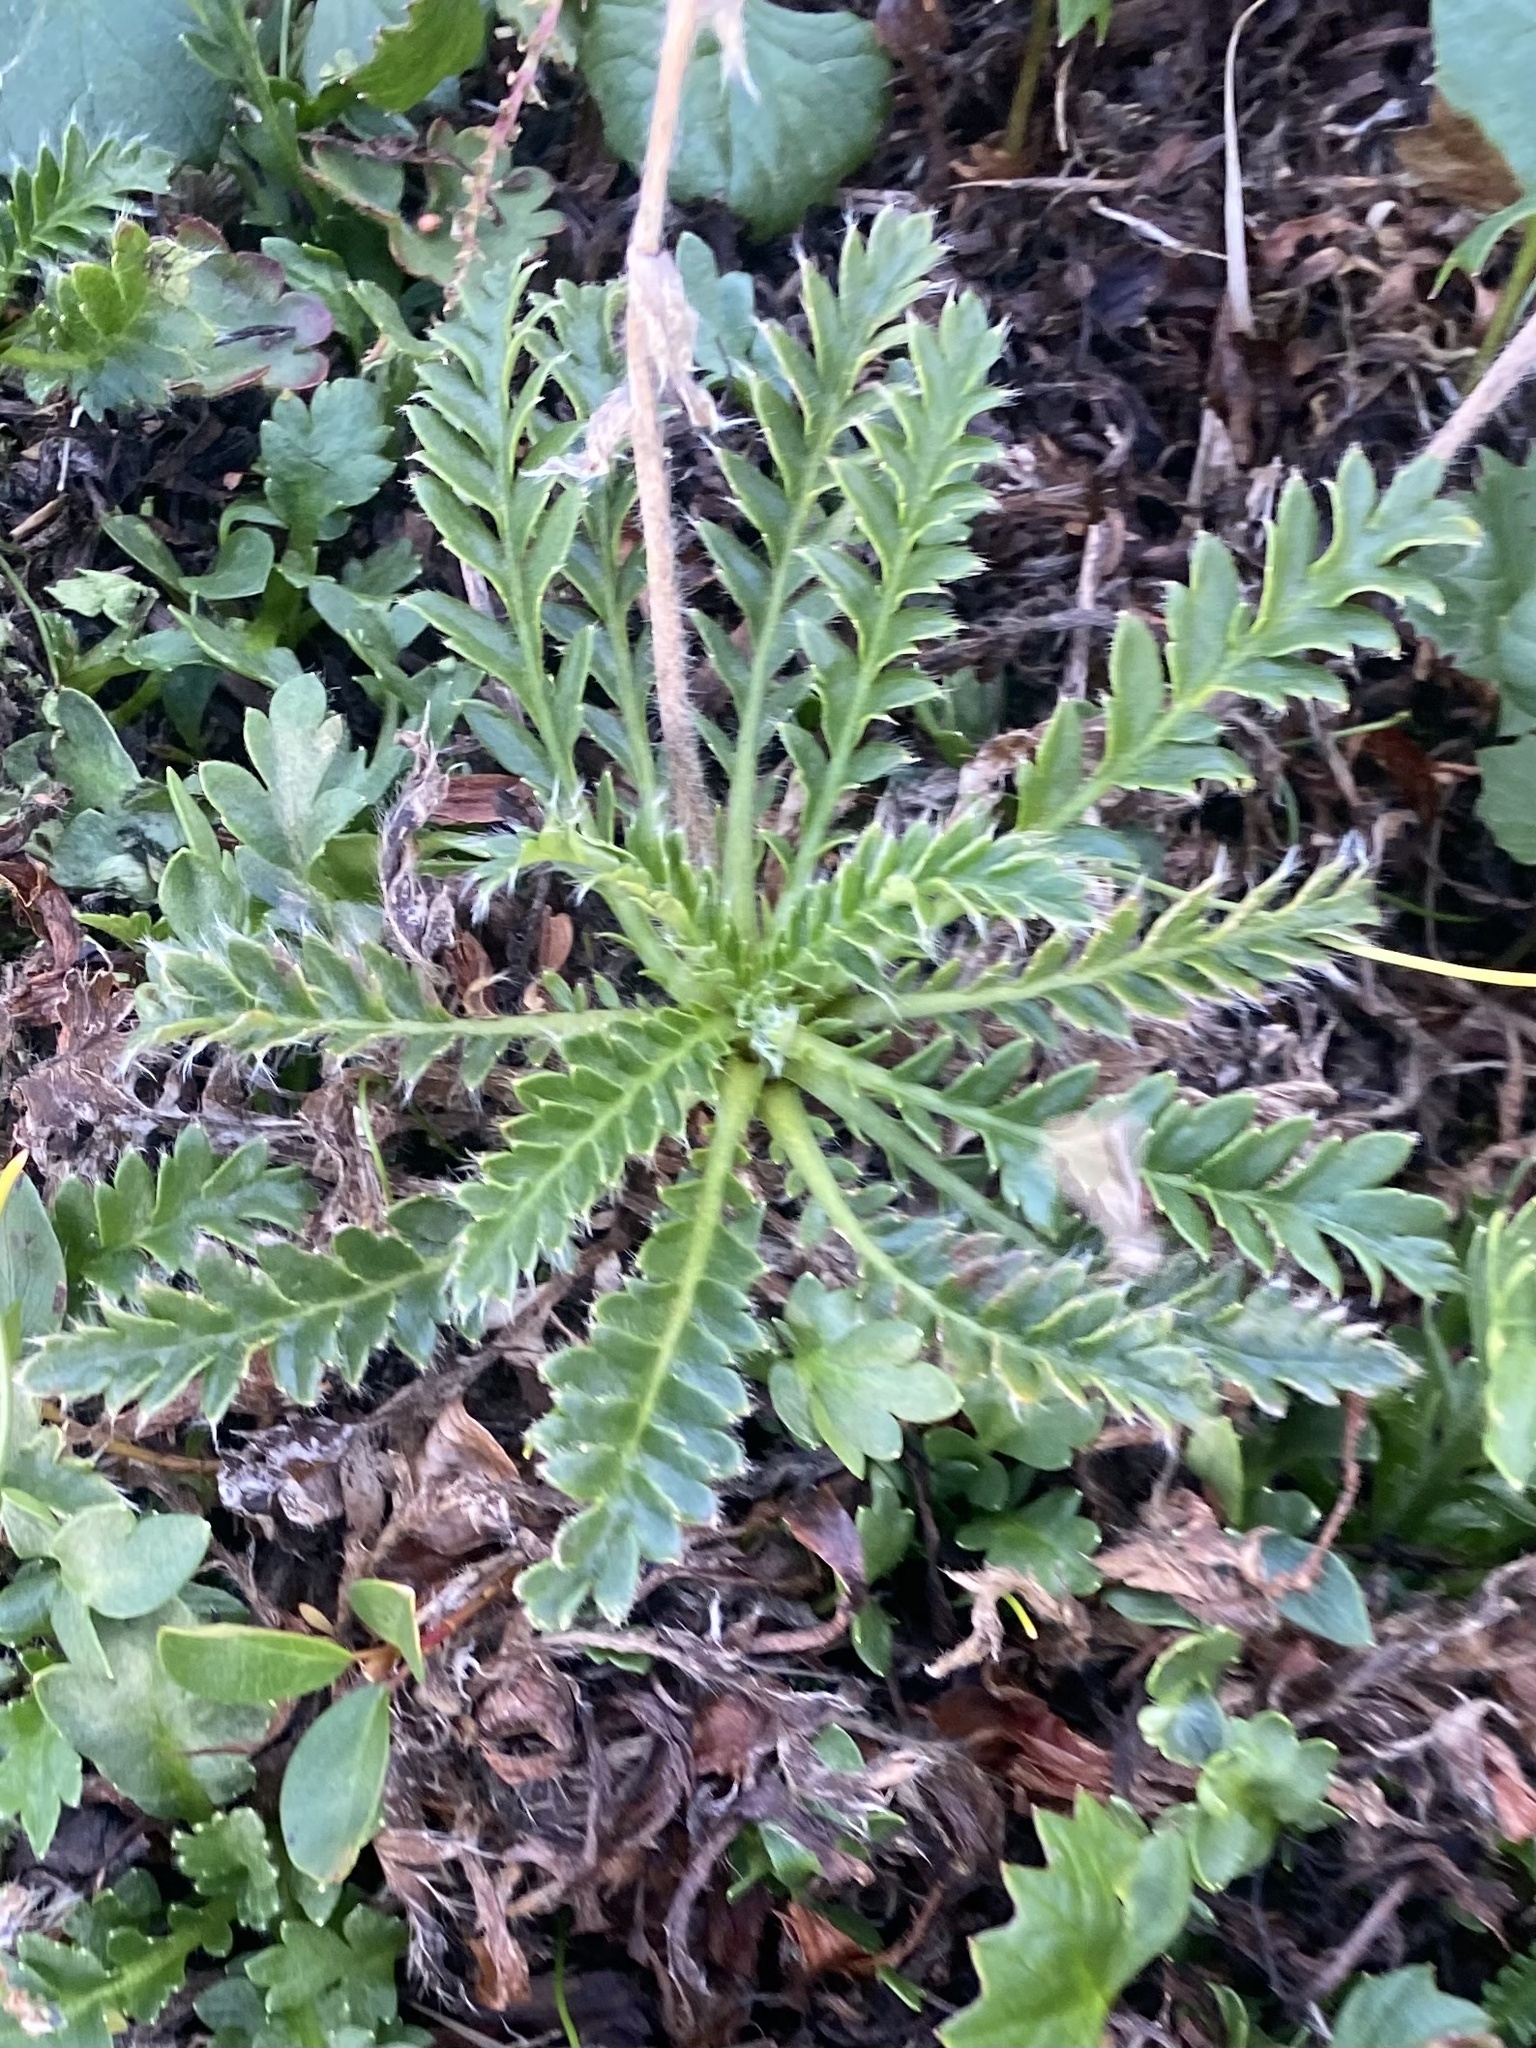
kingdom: Plantae
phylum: Tracheophyta
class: Magnoliopsida
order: Rosales
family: Rosaceae
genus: Geum
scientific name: Geum glaciale
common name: Glacier avens
